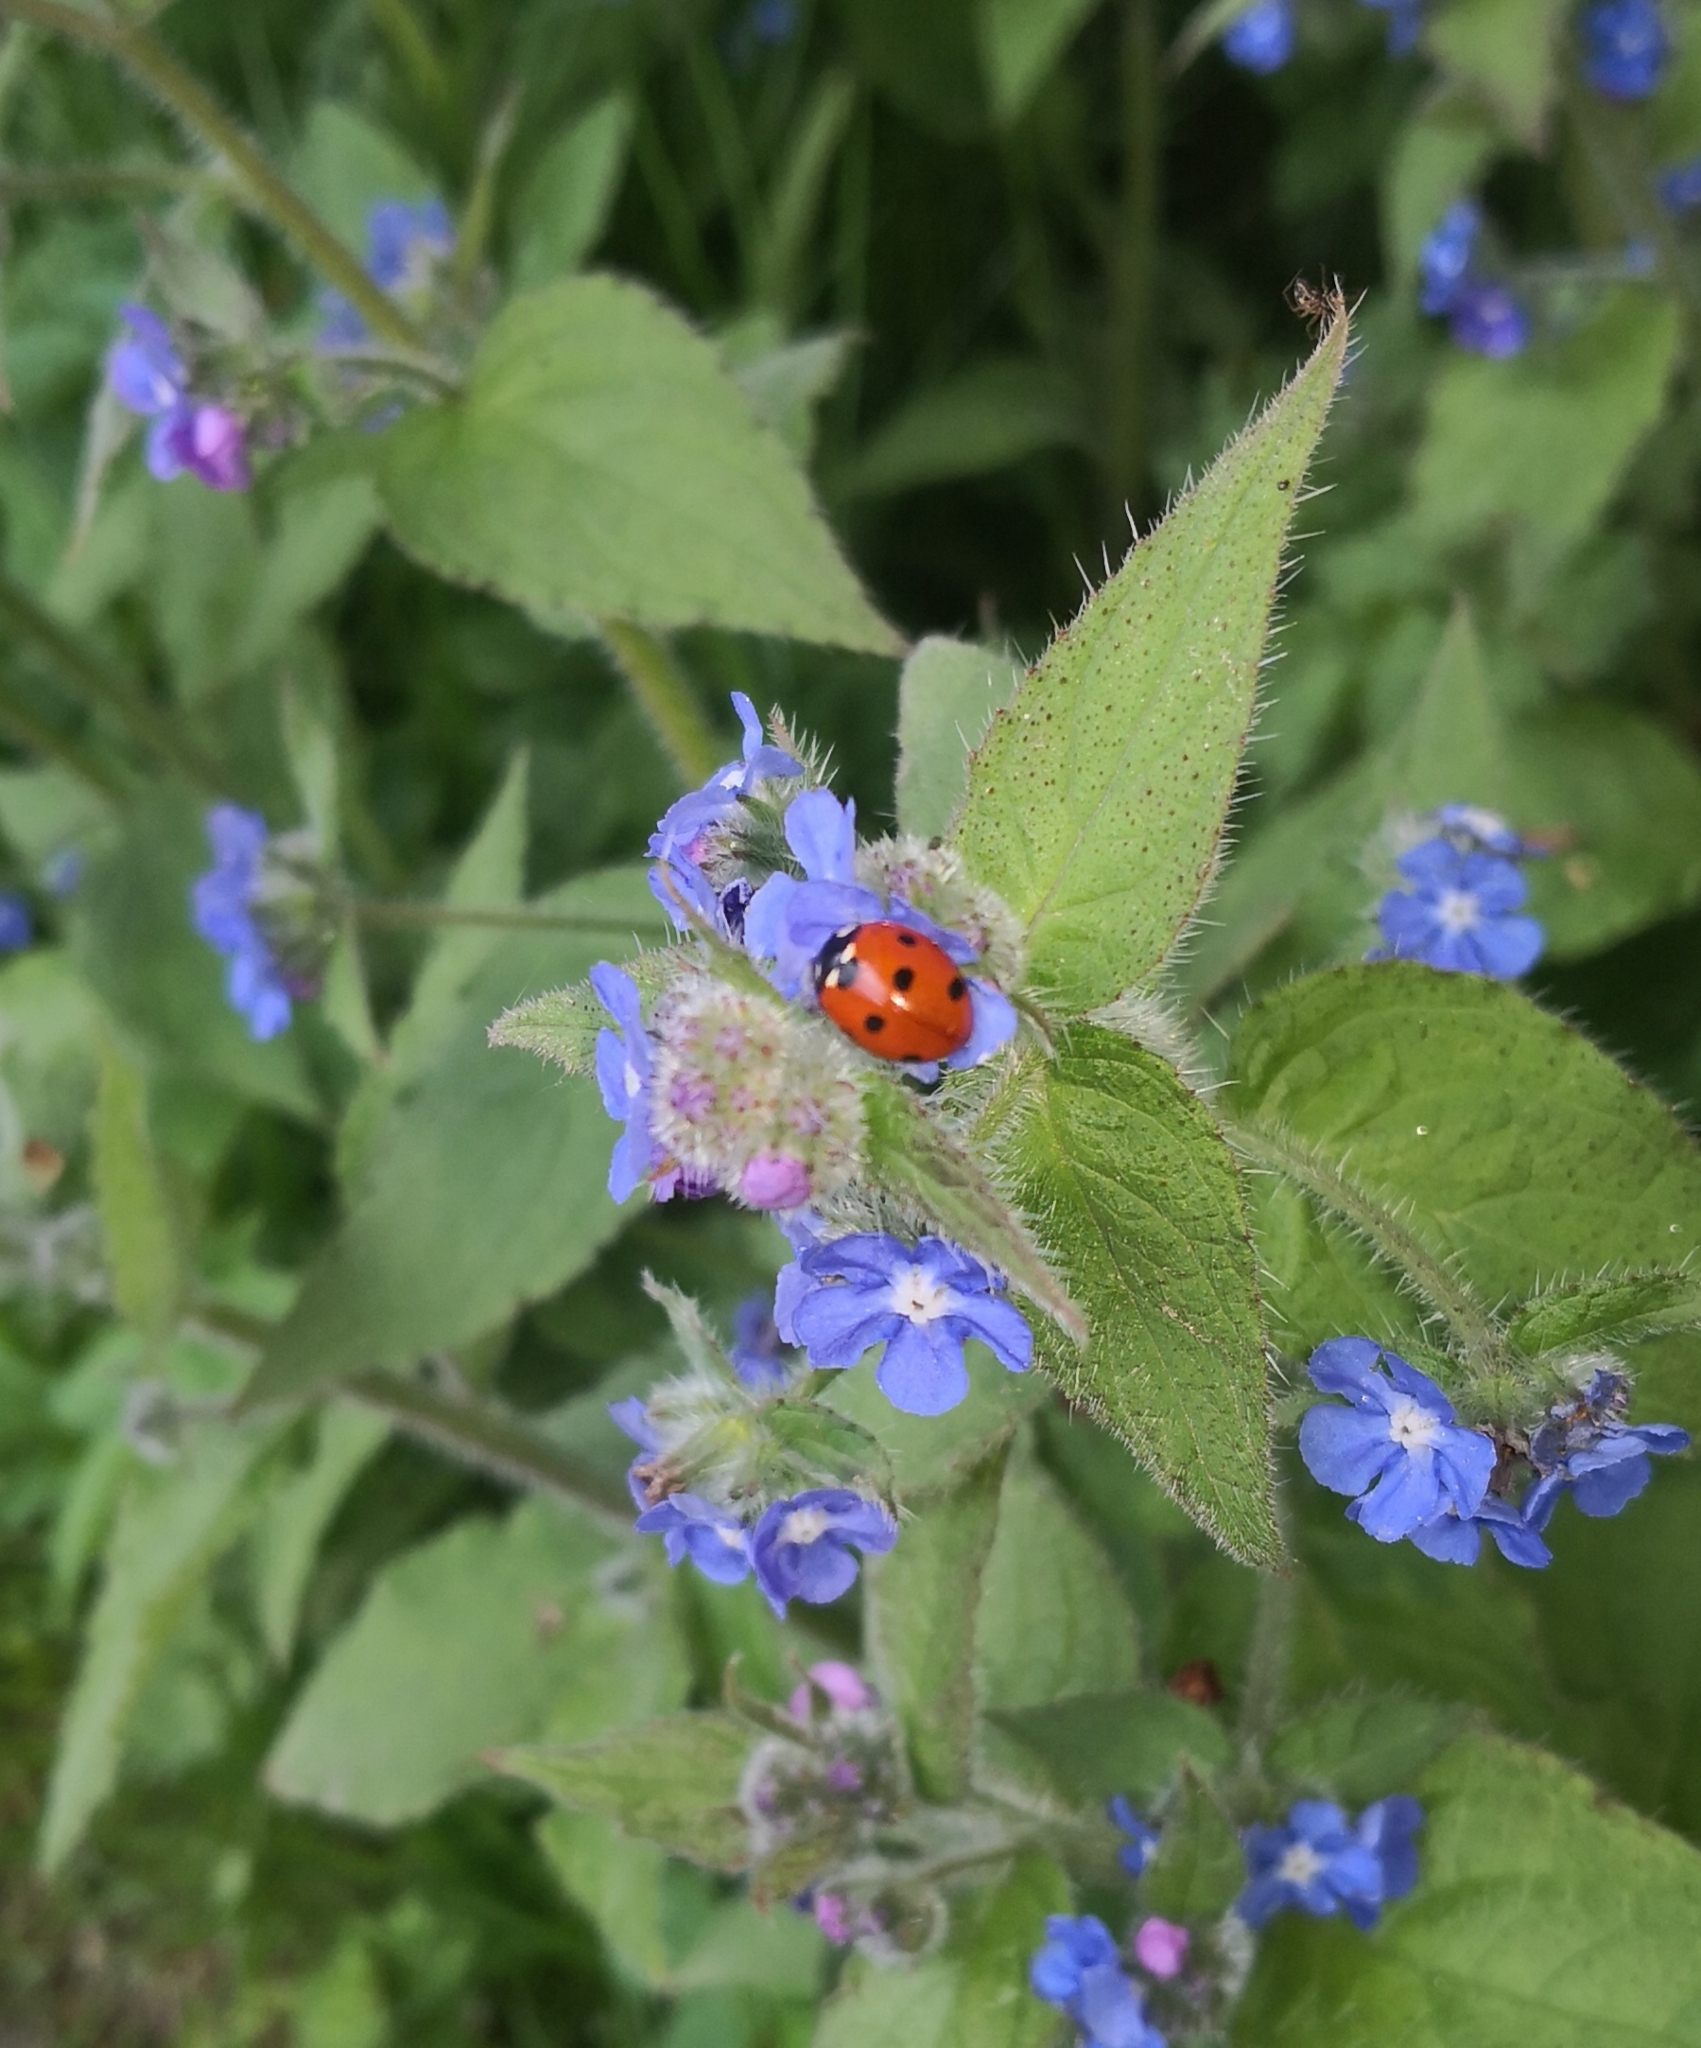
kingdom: Animalia
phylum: Arthropoda
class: Insecta
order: Coleoptera
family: Coccinellidae
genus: Coccinella
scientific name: Coccinella septempunctata
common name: Sevenspotted lady beetle
